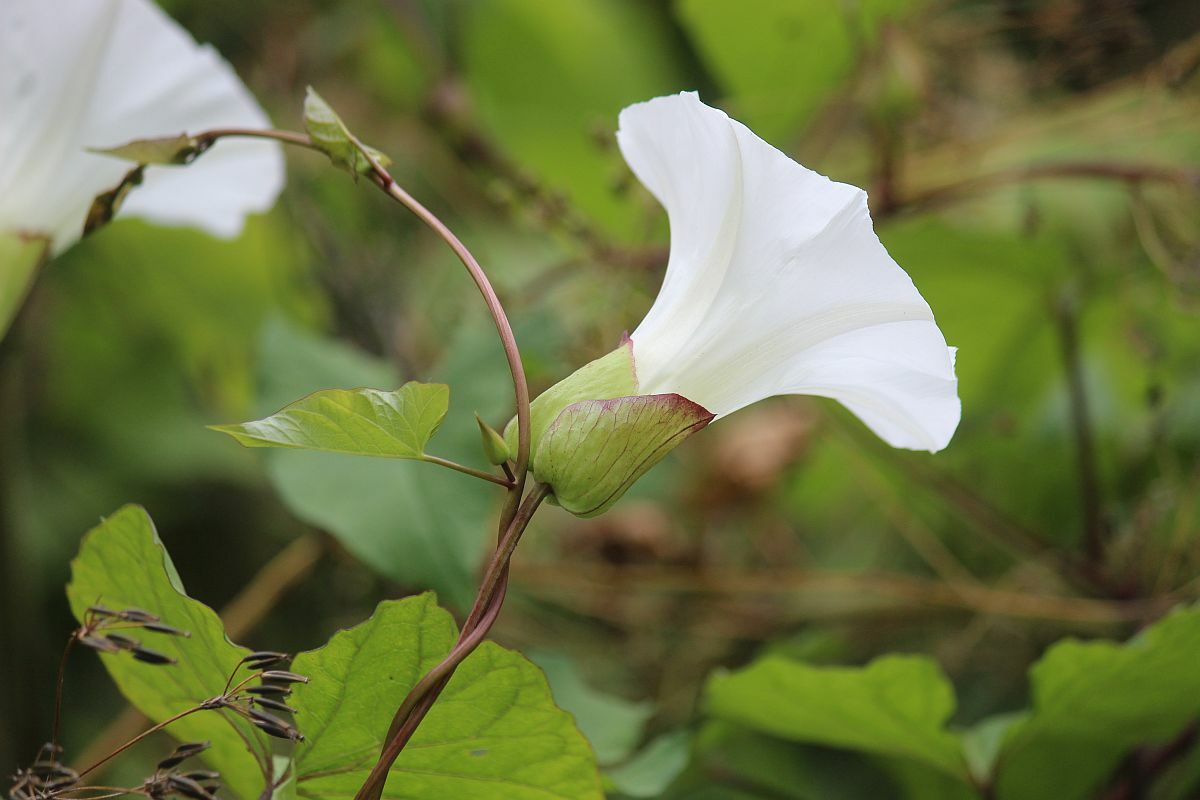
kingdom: Plantae
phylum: Tracheophyta
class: Magnoliopsida
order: Solanales
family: Convolvulaceae
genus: Calystegia
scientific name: Calystegia silvatica
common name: Large bindweed
